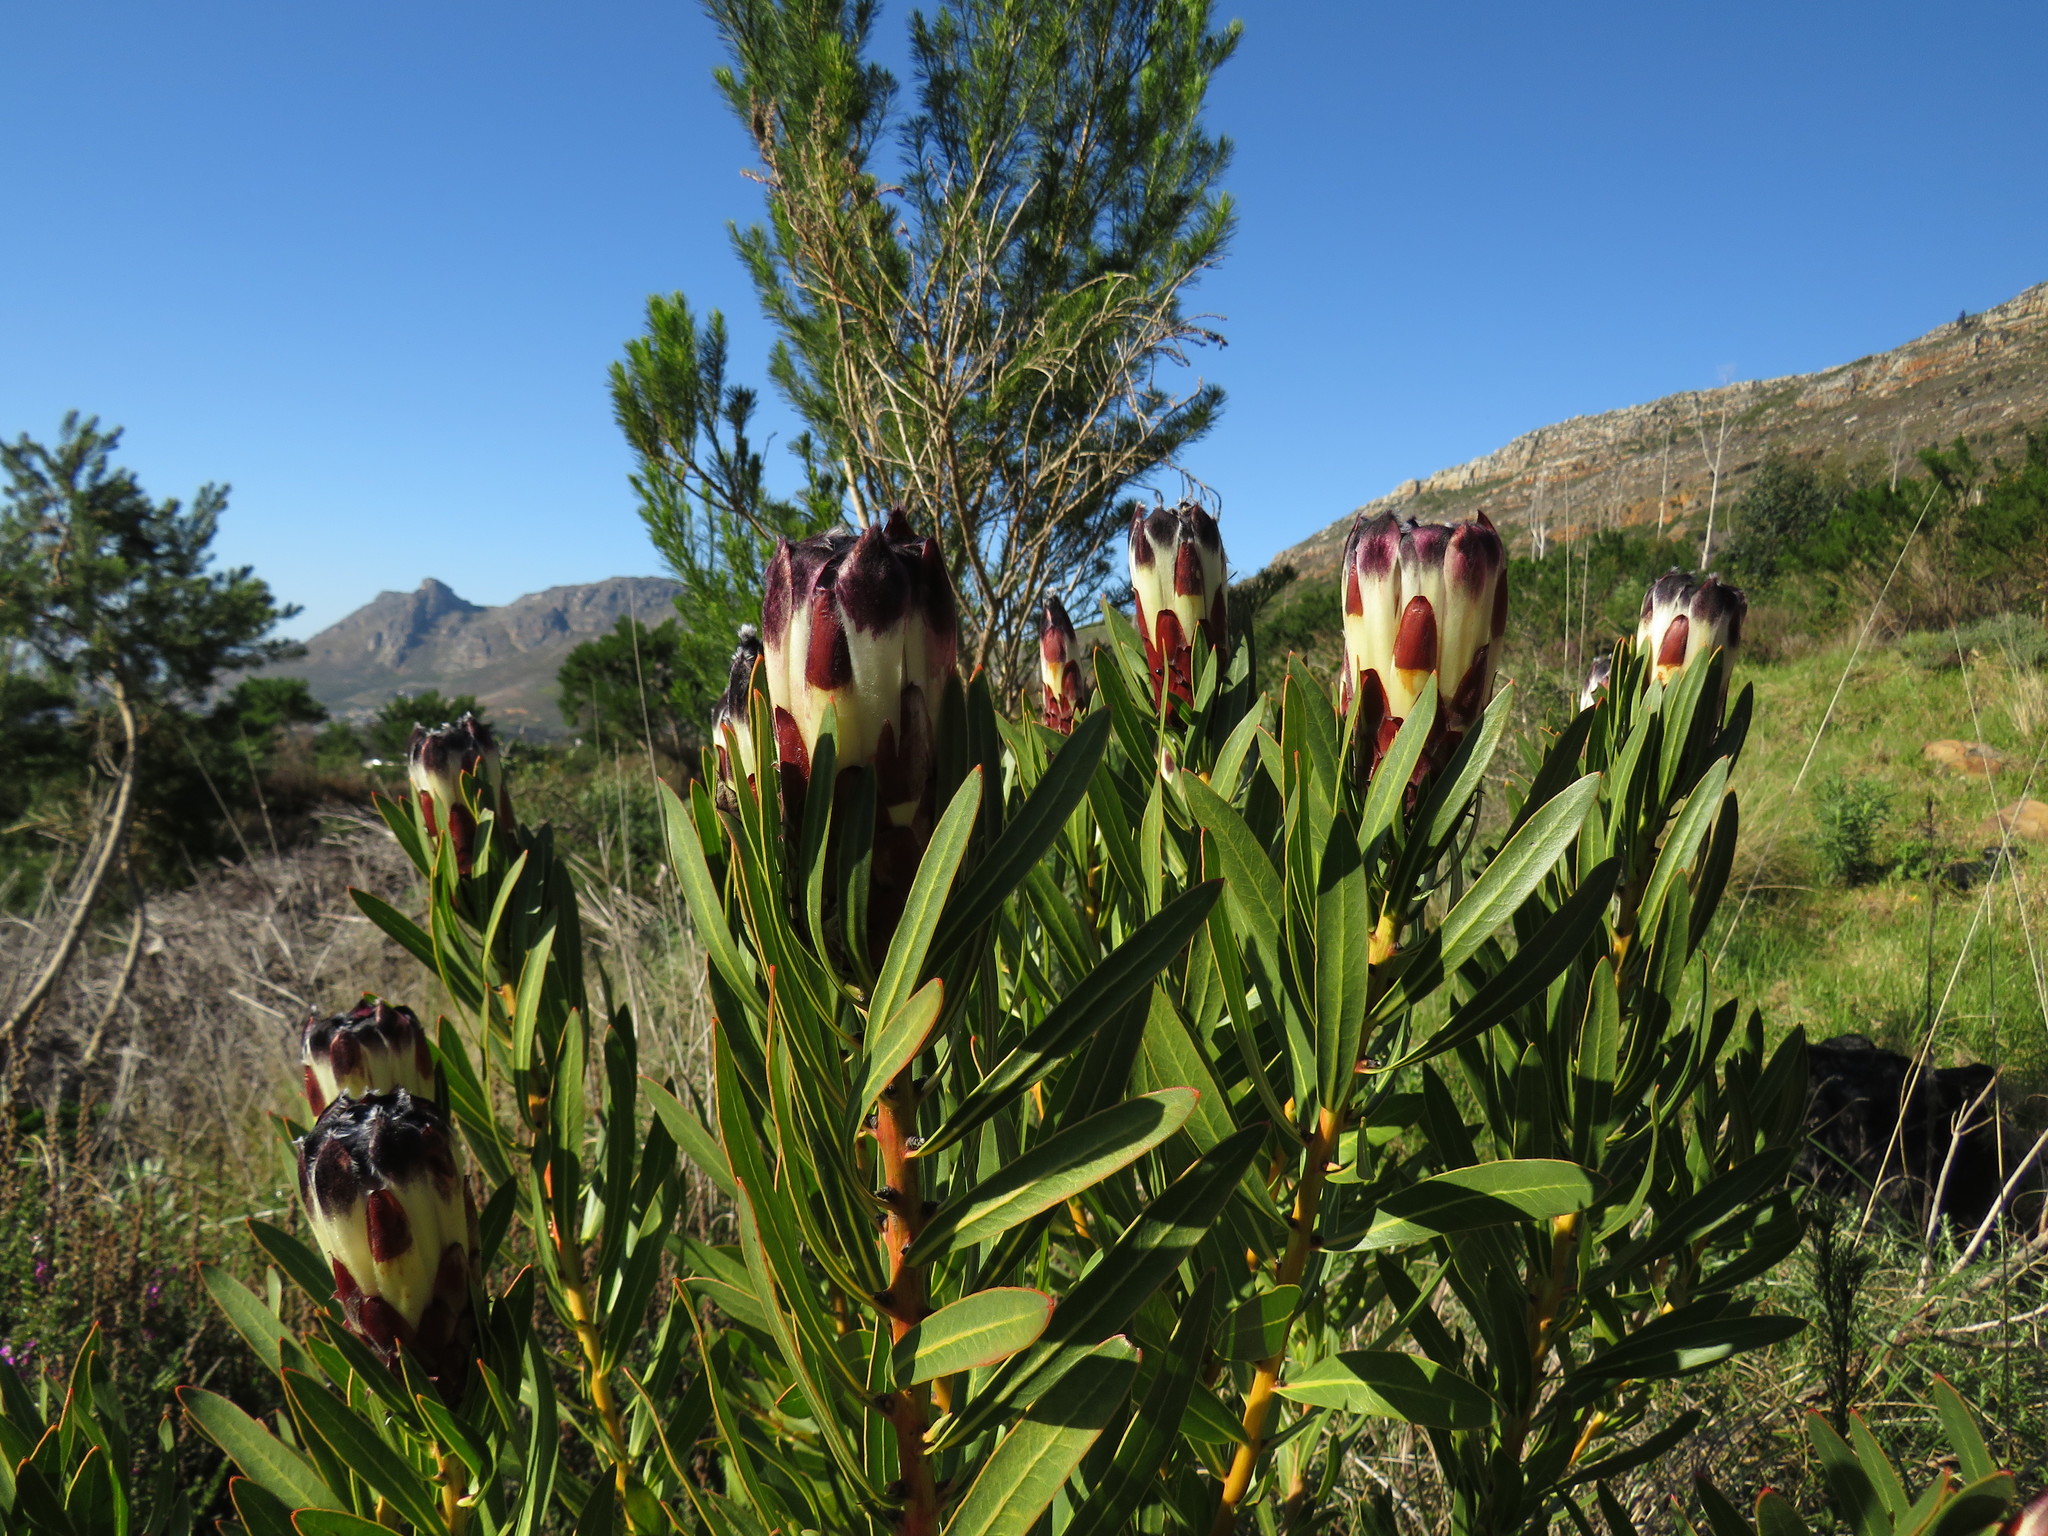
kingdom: Plantae
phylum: Tracheophyta
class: Magnoliopsida
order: Proteales
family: Proteaceae
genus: Protea
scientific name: Protea lepidocarpodendron
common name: Black-bearded protea
